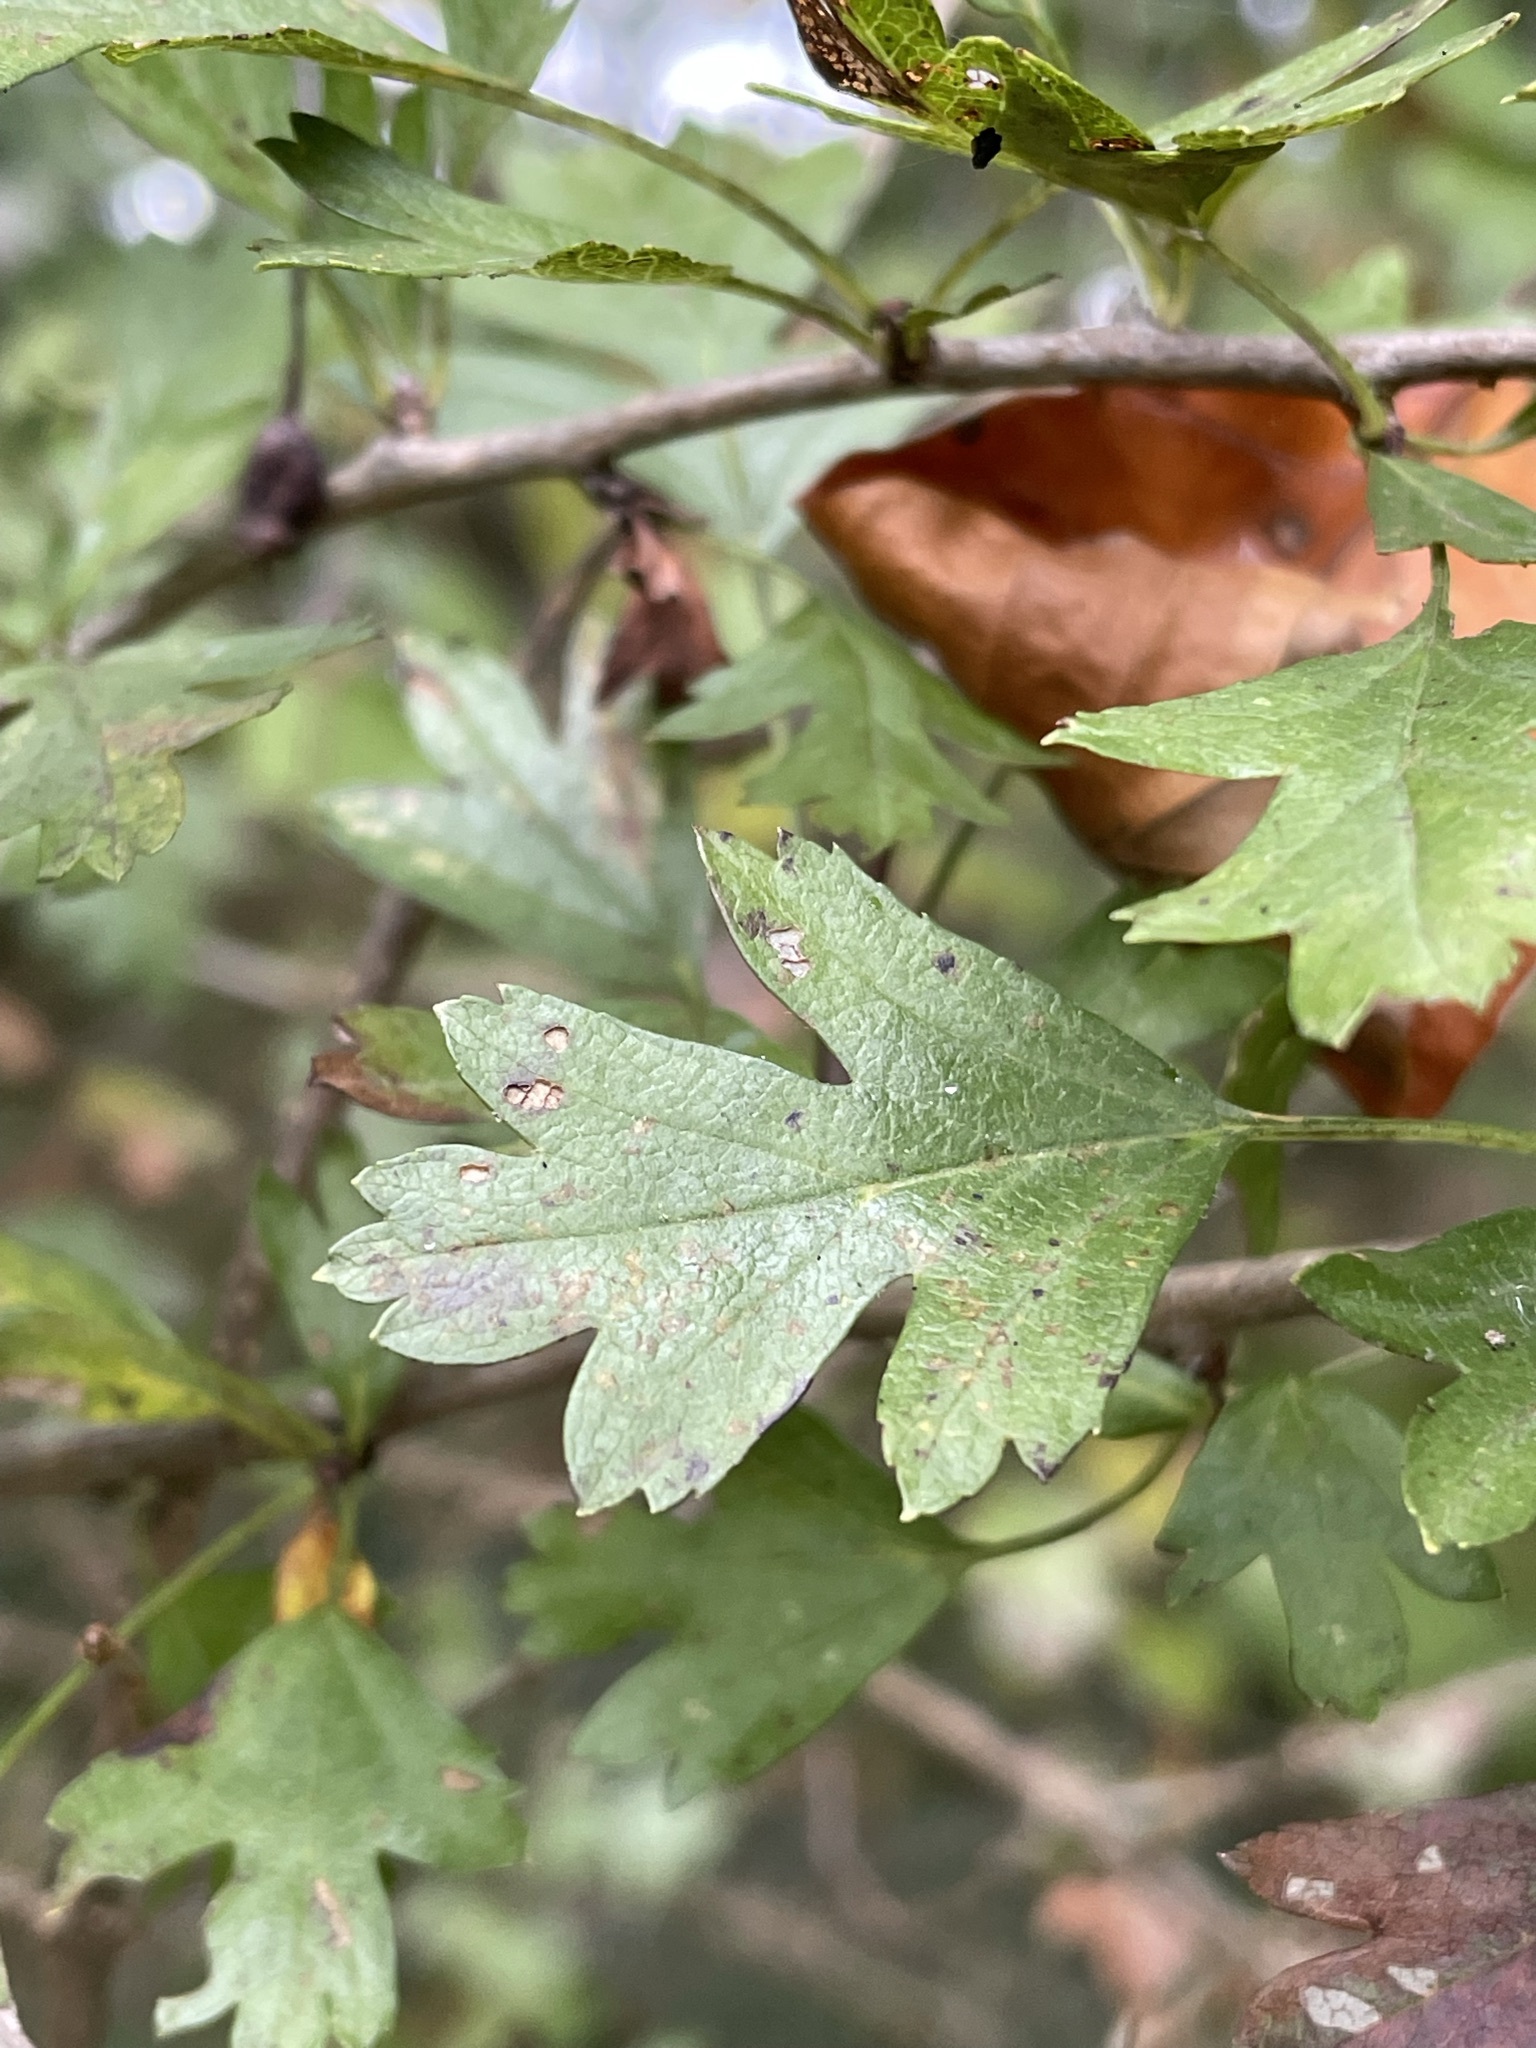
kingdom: Plantae
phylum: Tracheophyta
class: Magnoliopsida
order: Rosales
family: Rosaceae
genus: Crataegus
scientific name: Crataegus monogyna
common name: Hawthorn
